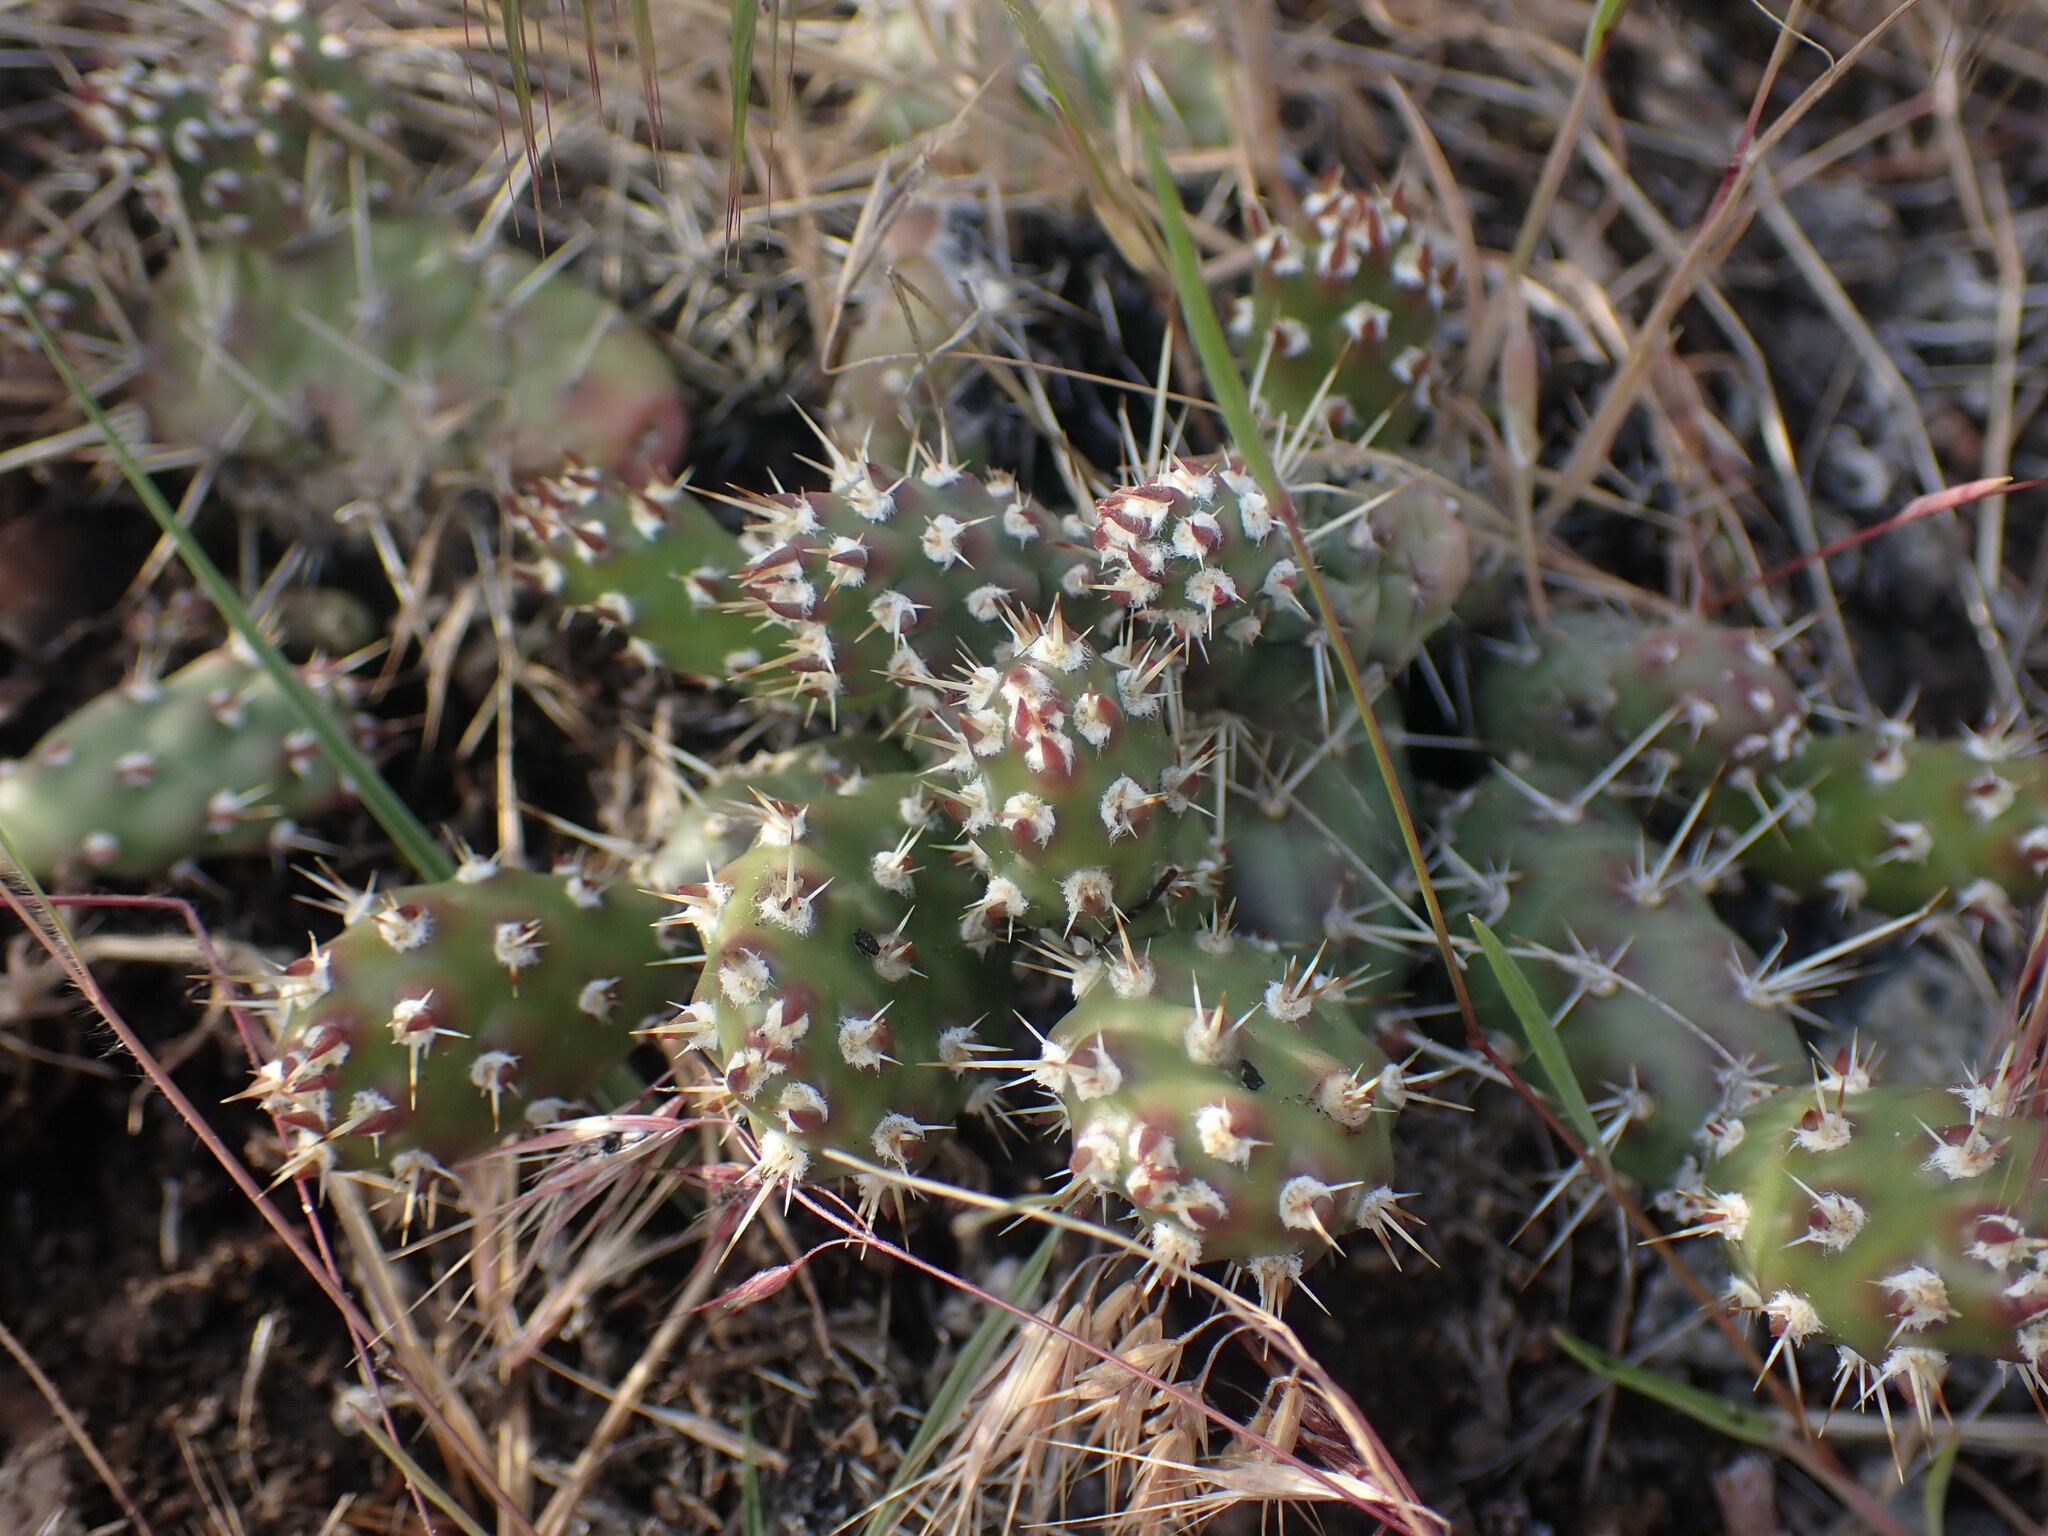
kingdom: Plantae
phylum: Tracheophyta
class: Magnoliopsida
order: Caryophyllales
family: Cactaceae
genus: Opuntia
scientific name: Opuntia fragilis
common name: Brittle cactus
